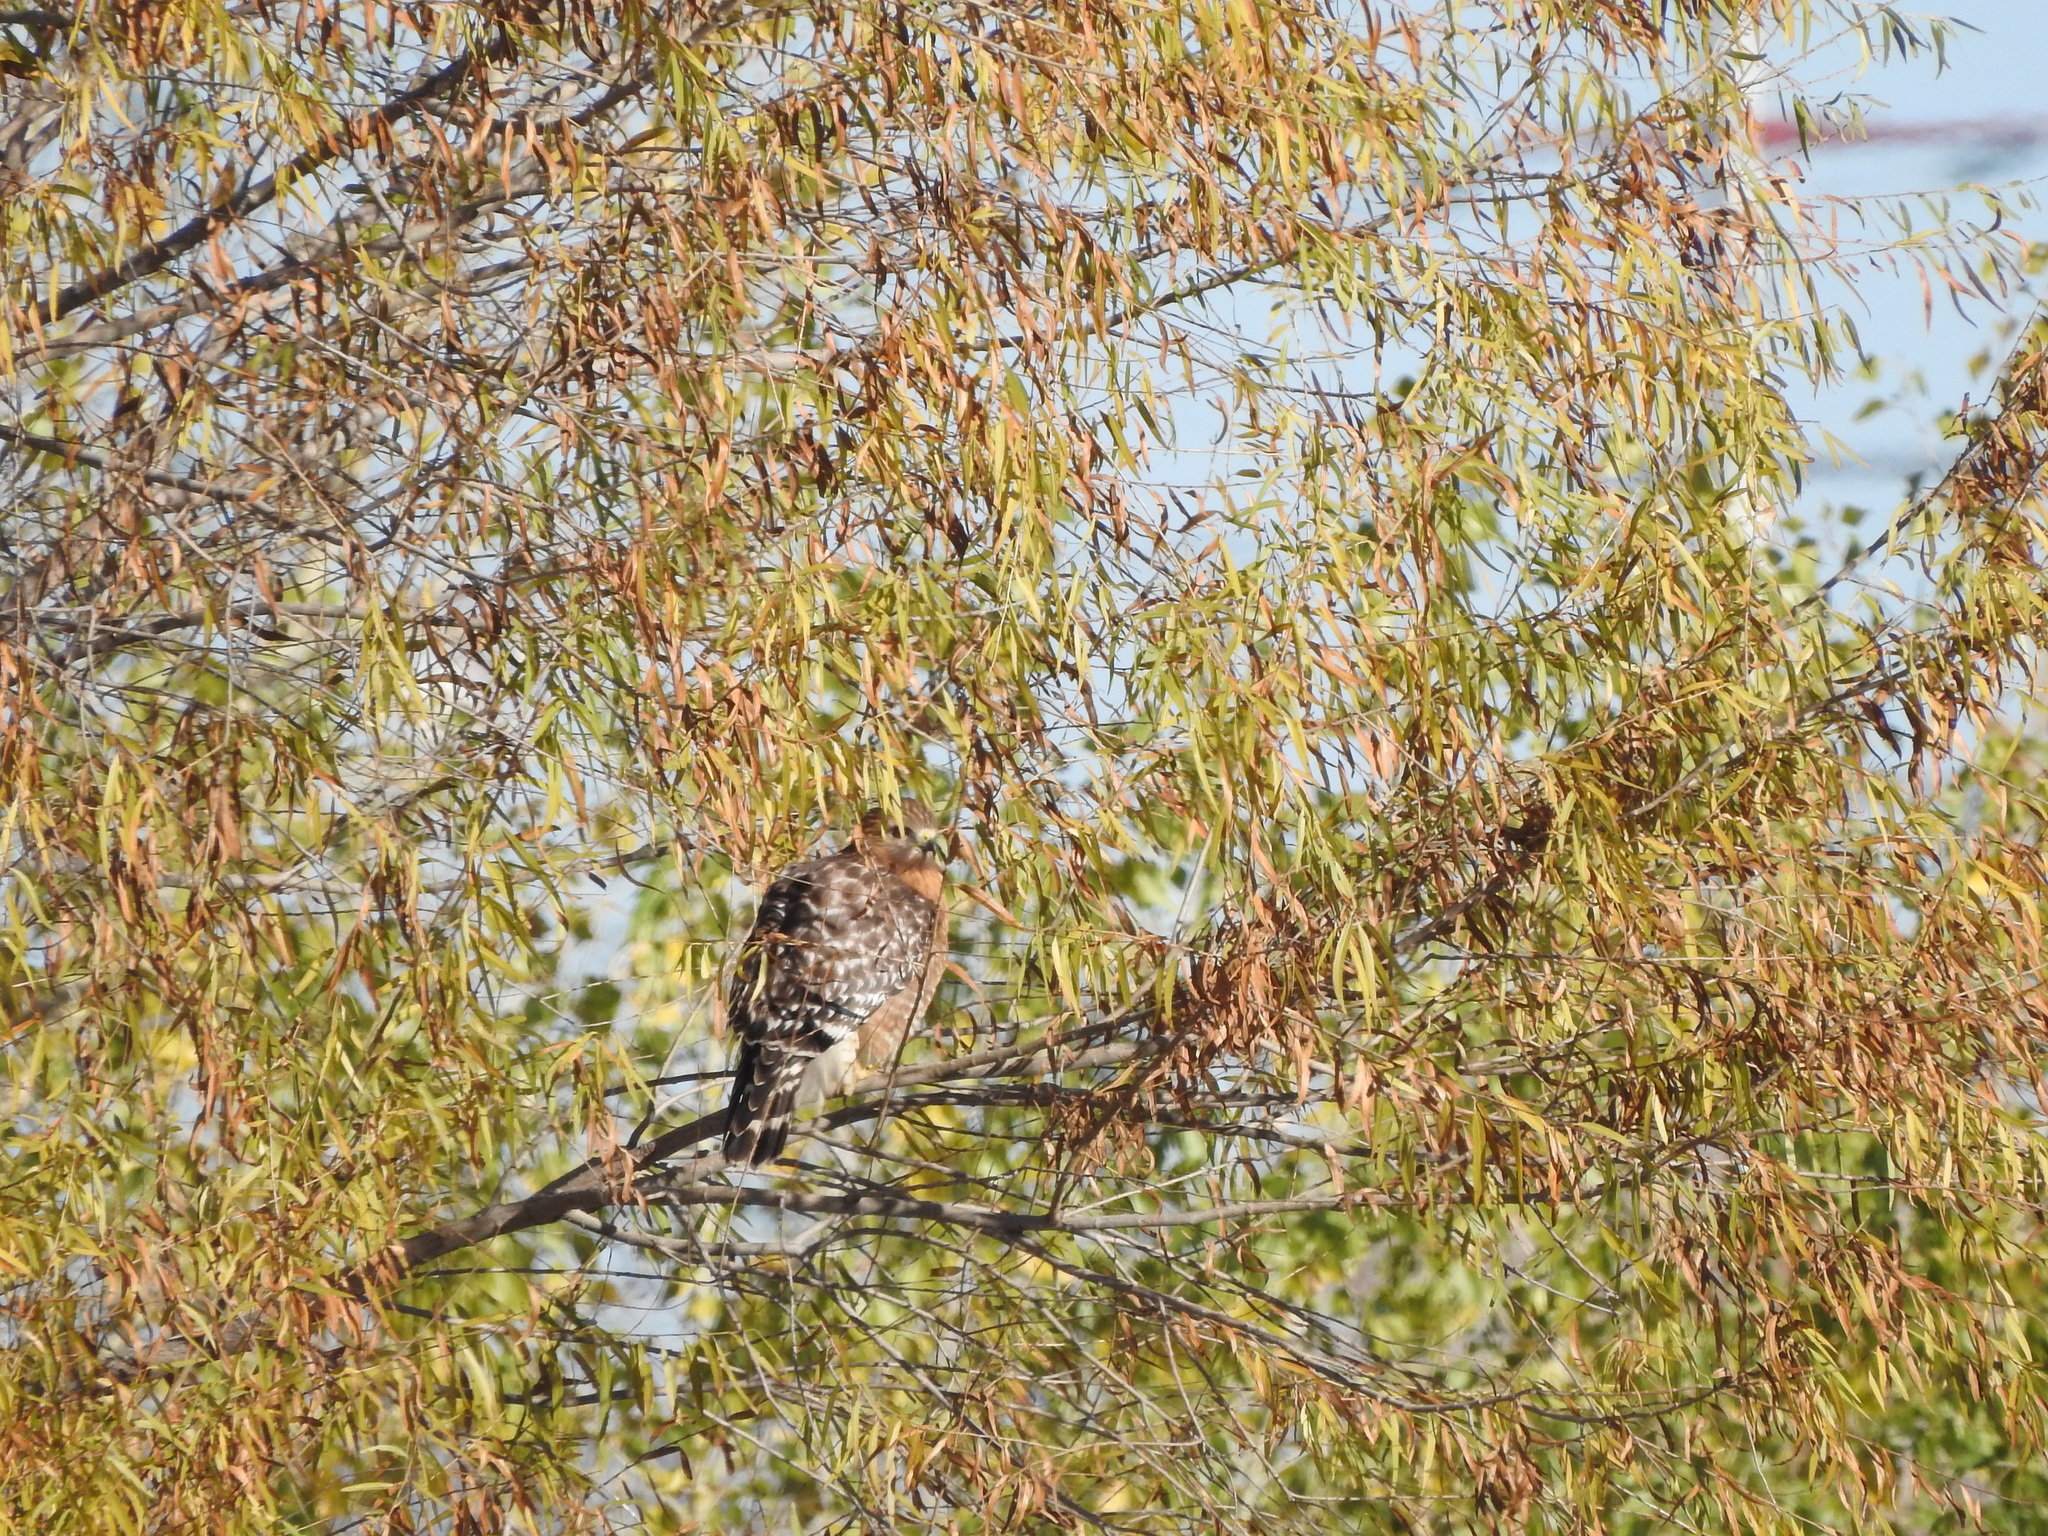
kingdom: Animalia
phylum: Chordata
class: Aves
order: Accipitriformes
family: Accipitridae
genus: Buteo
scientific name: Buteo lineatus
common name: Red-shouldered hawk
